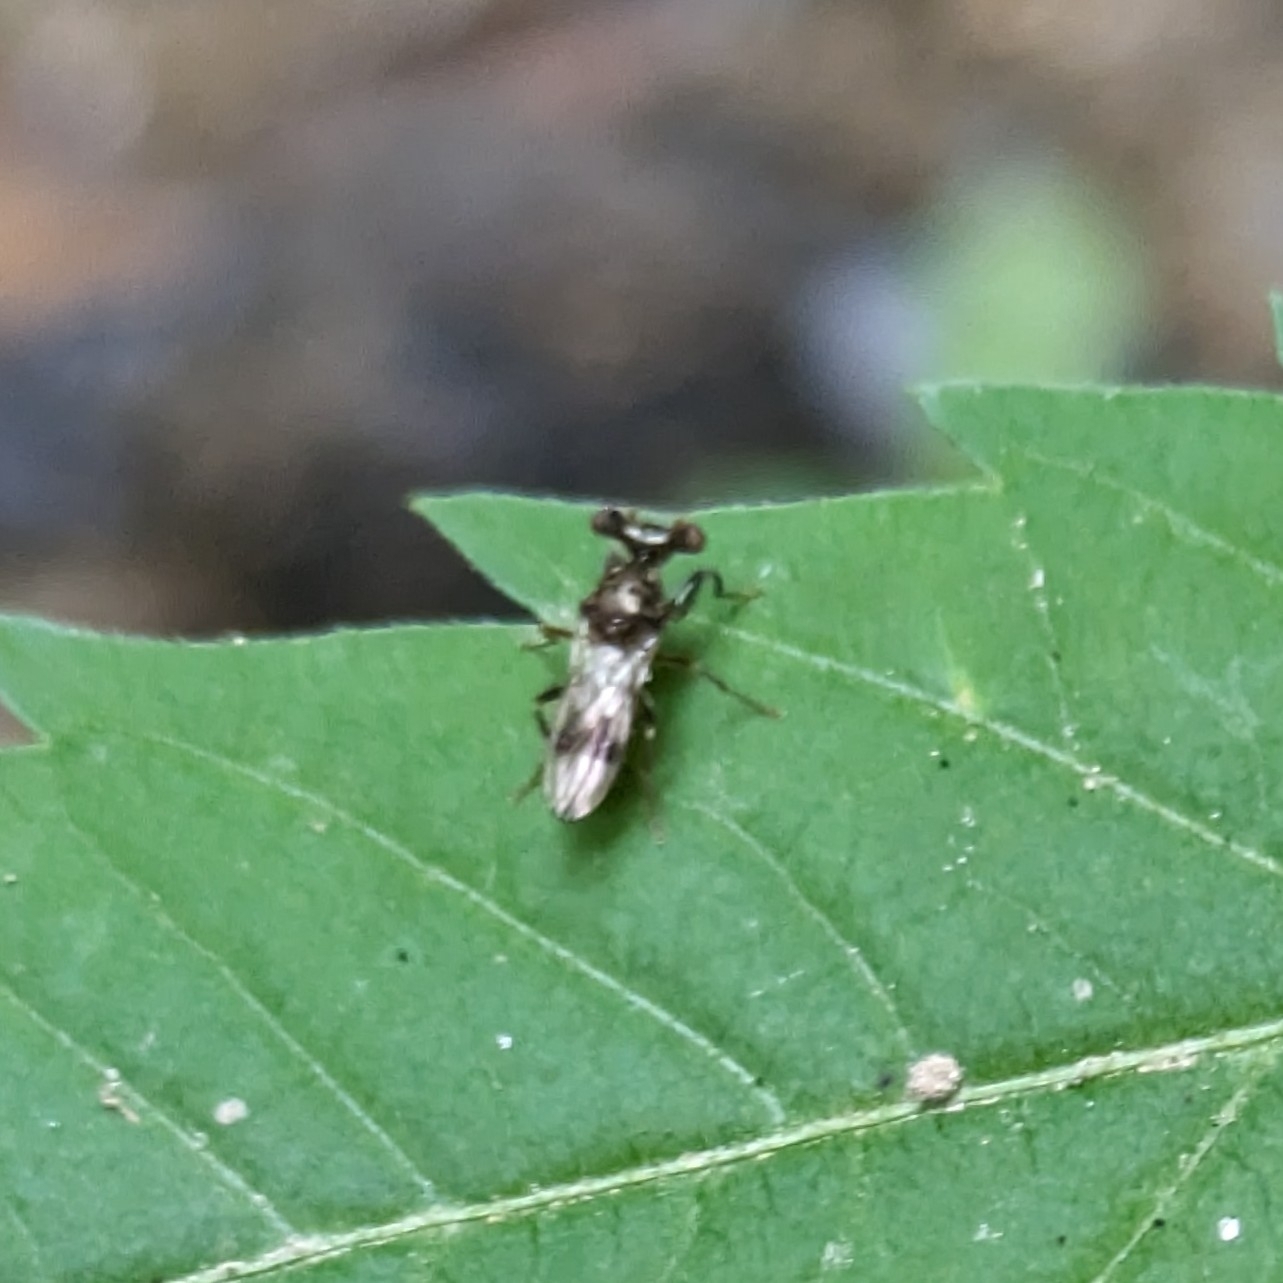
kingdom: Animalia
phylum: Arthropoda
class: Insecta
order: Diptera
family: Diopsidae
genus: Sphyracephala
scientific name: Sphyracephala brevicornis
